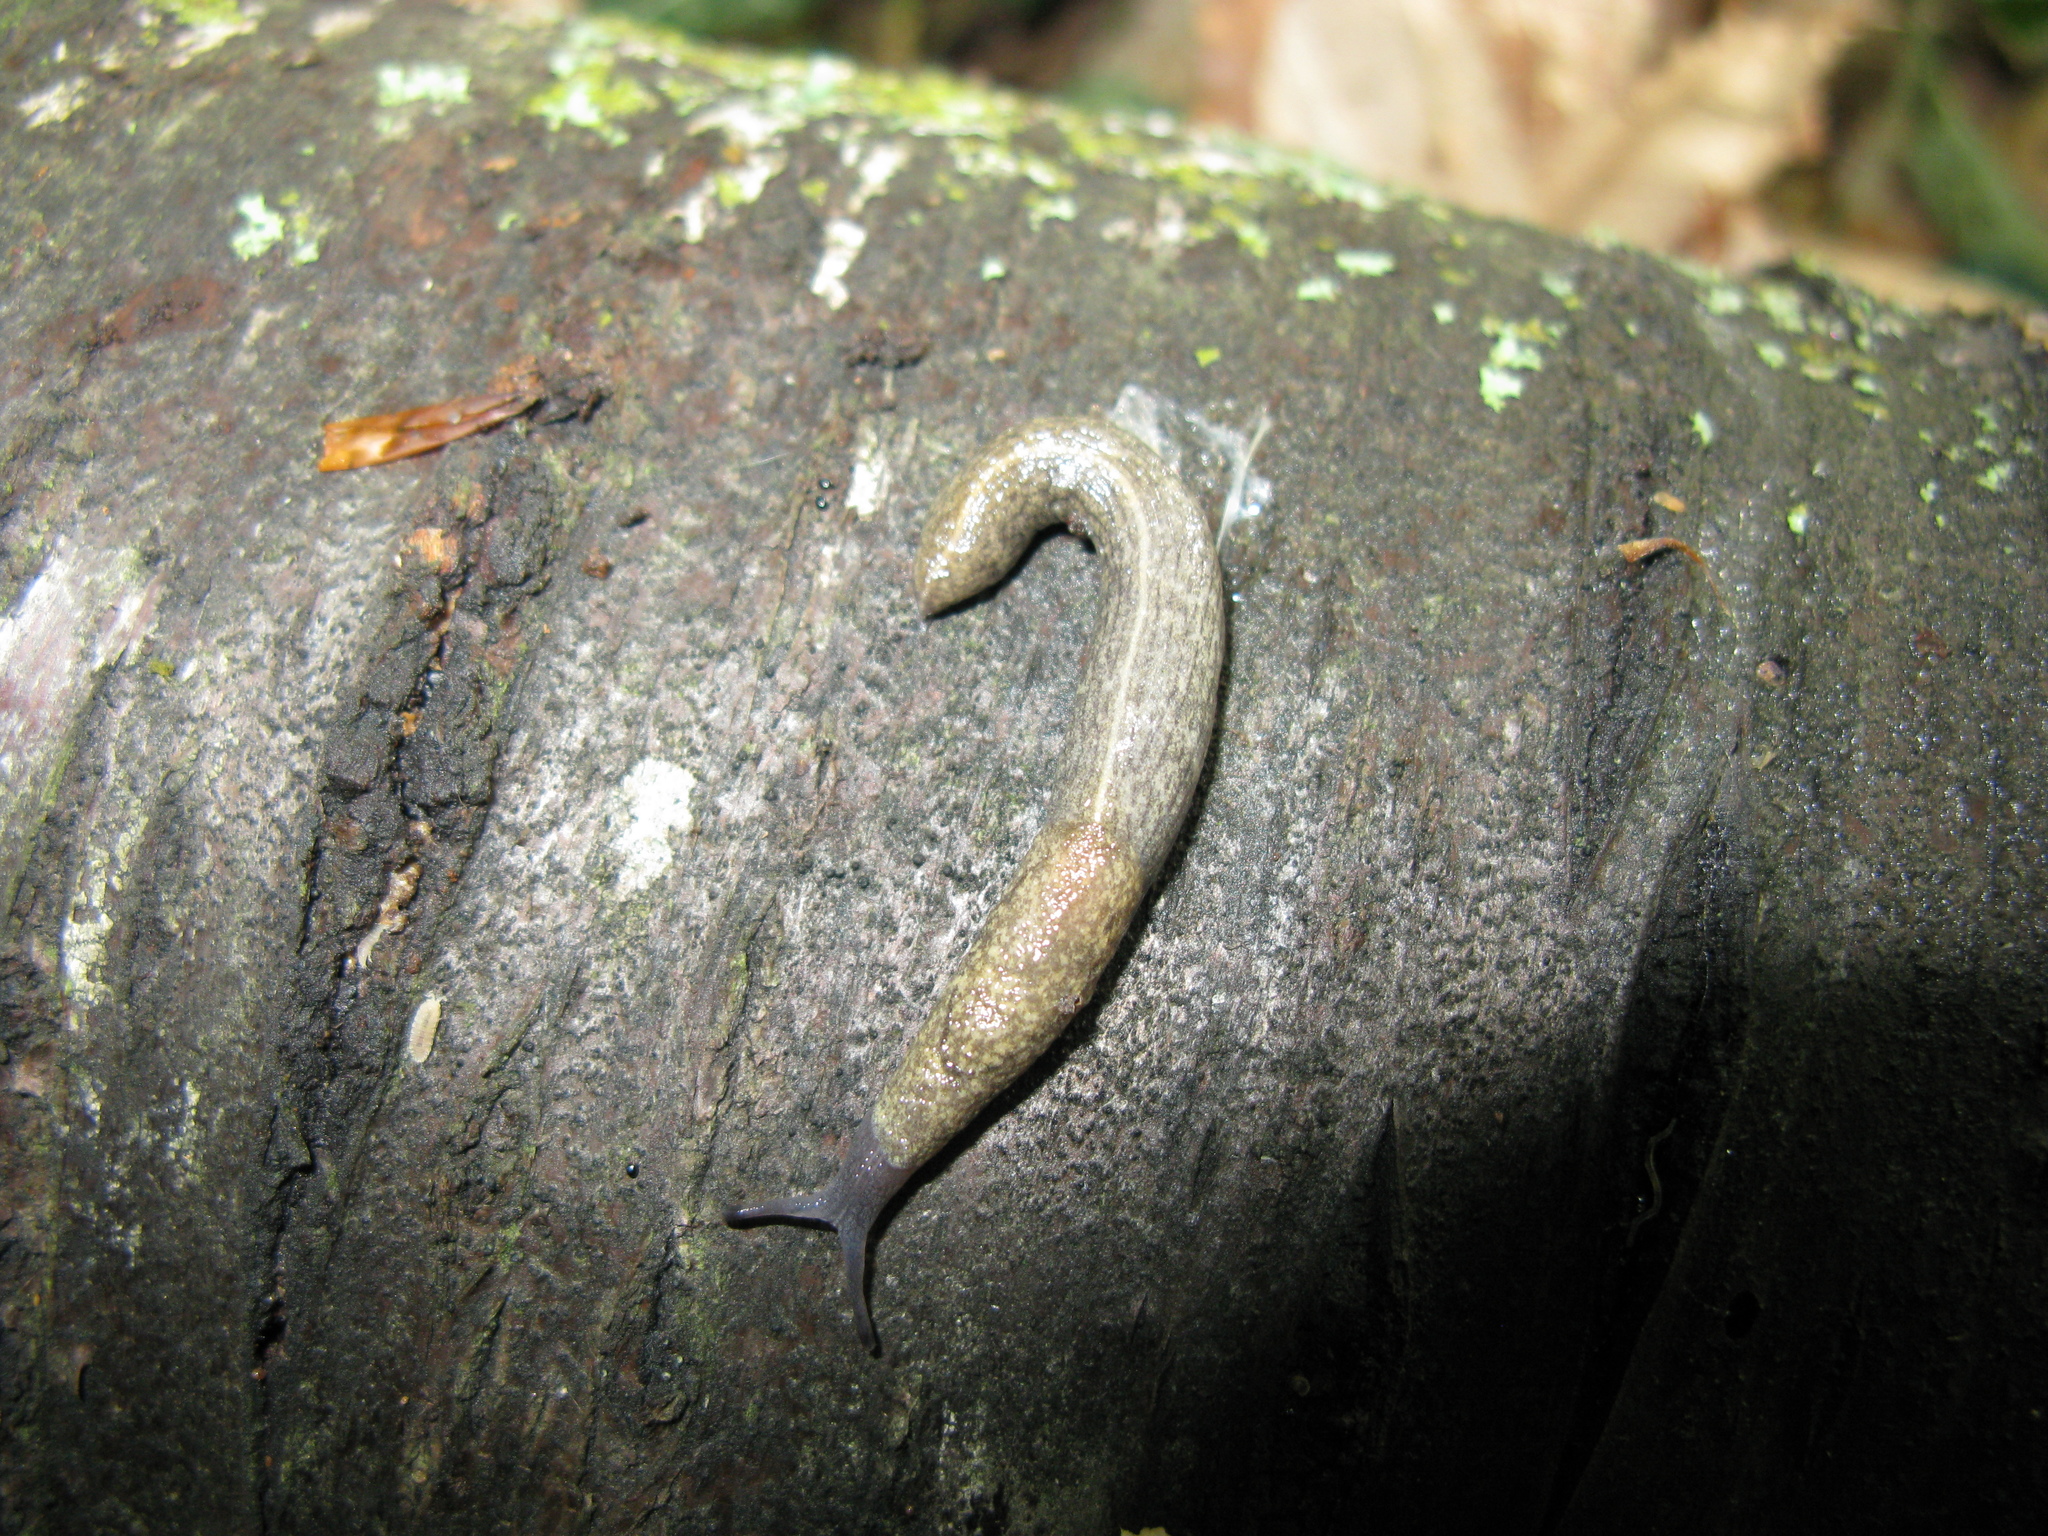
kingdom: Animalia
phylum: Mollusca
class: Gastropoda
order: Stylommatophora
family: Milacidae
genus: Tandonia
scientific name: Tandonia kaleniczenkoi
